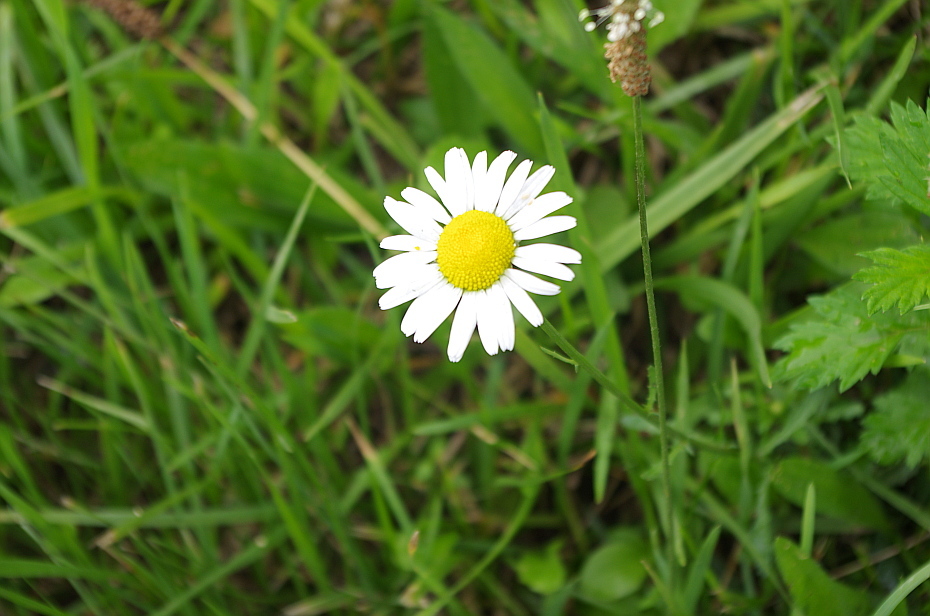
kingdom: Plantae
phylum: Tracheophyta
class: Magnoliopsida
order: Asterales
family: Asteraceae
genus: Leucanthemum
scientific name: Leucanthemum vulgare
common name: Oxeye daisy
